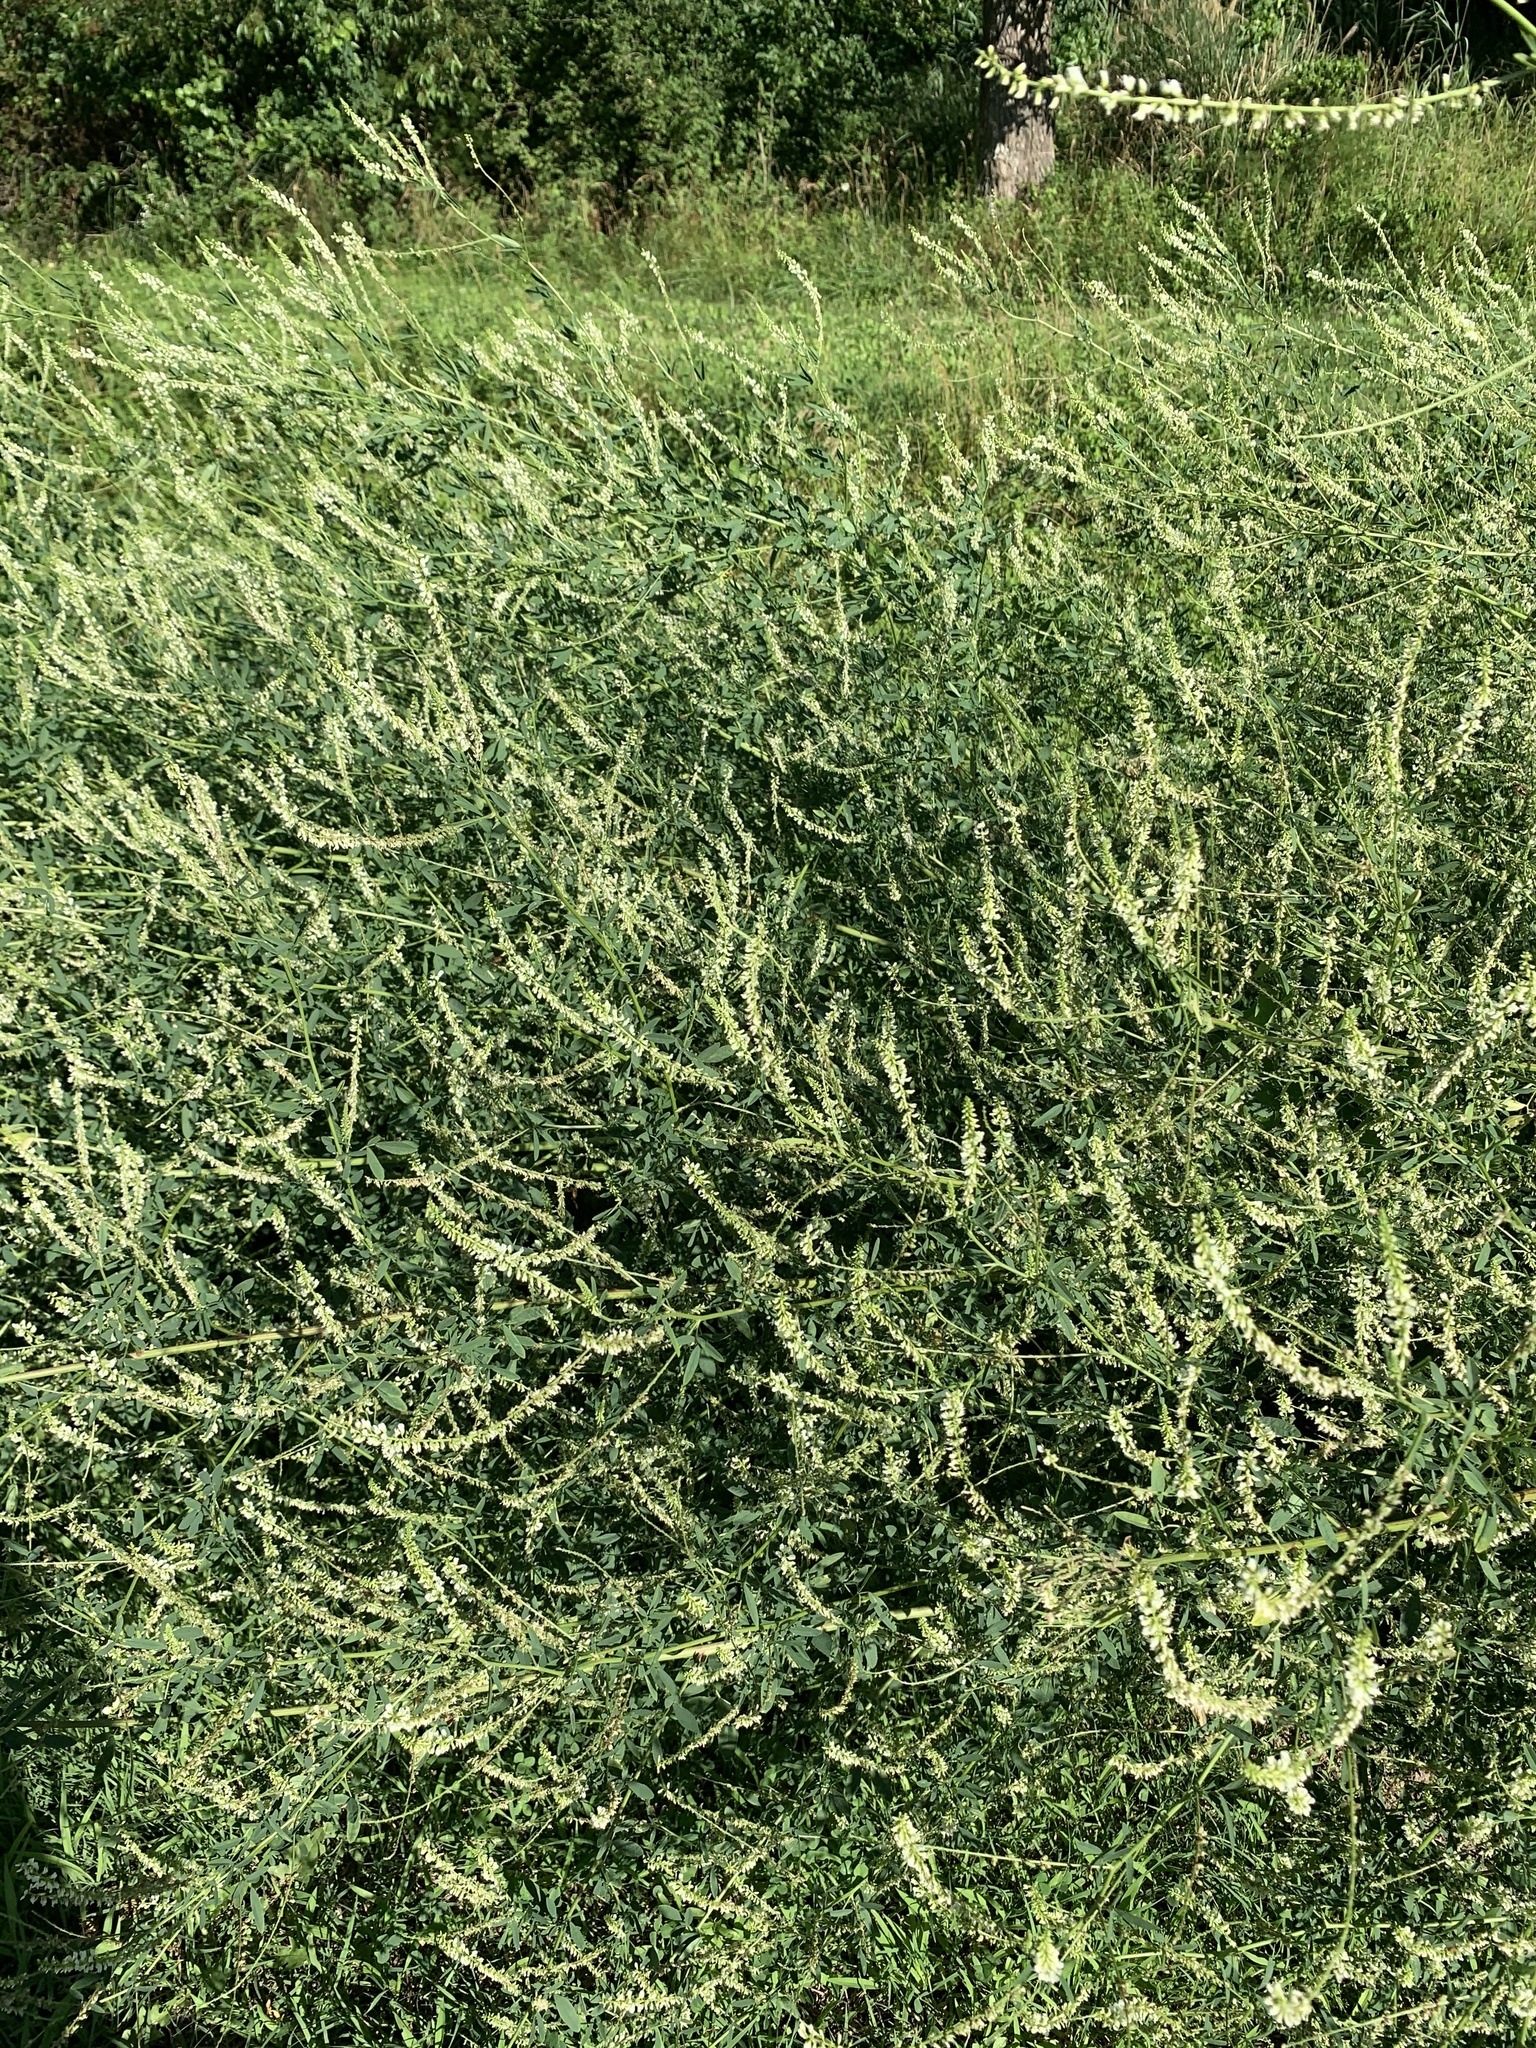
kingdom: Plantae
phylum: Tracheophyta
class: Magnoliopsida
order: Fabales
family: Fabaceae
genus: Melilotus
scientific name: Melilotus albus
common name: White melilot
